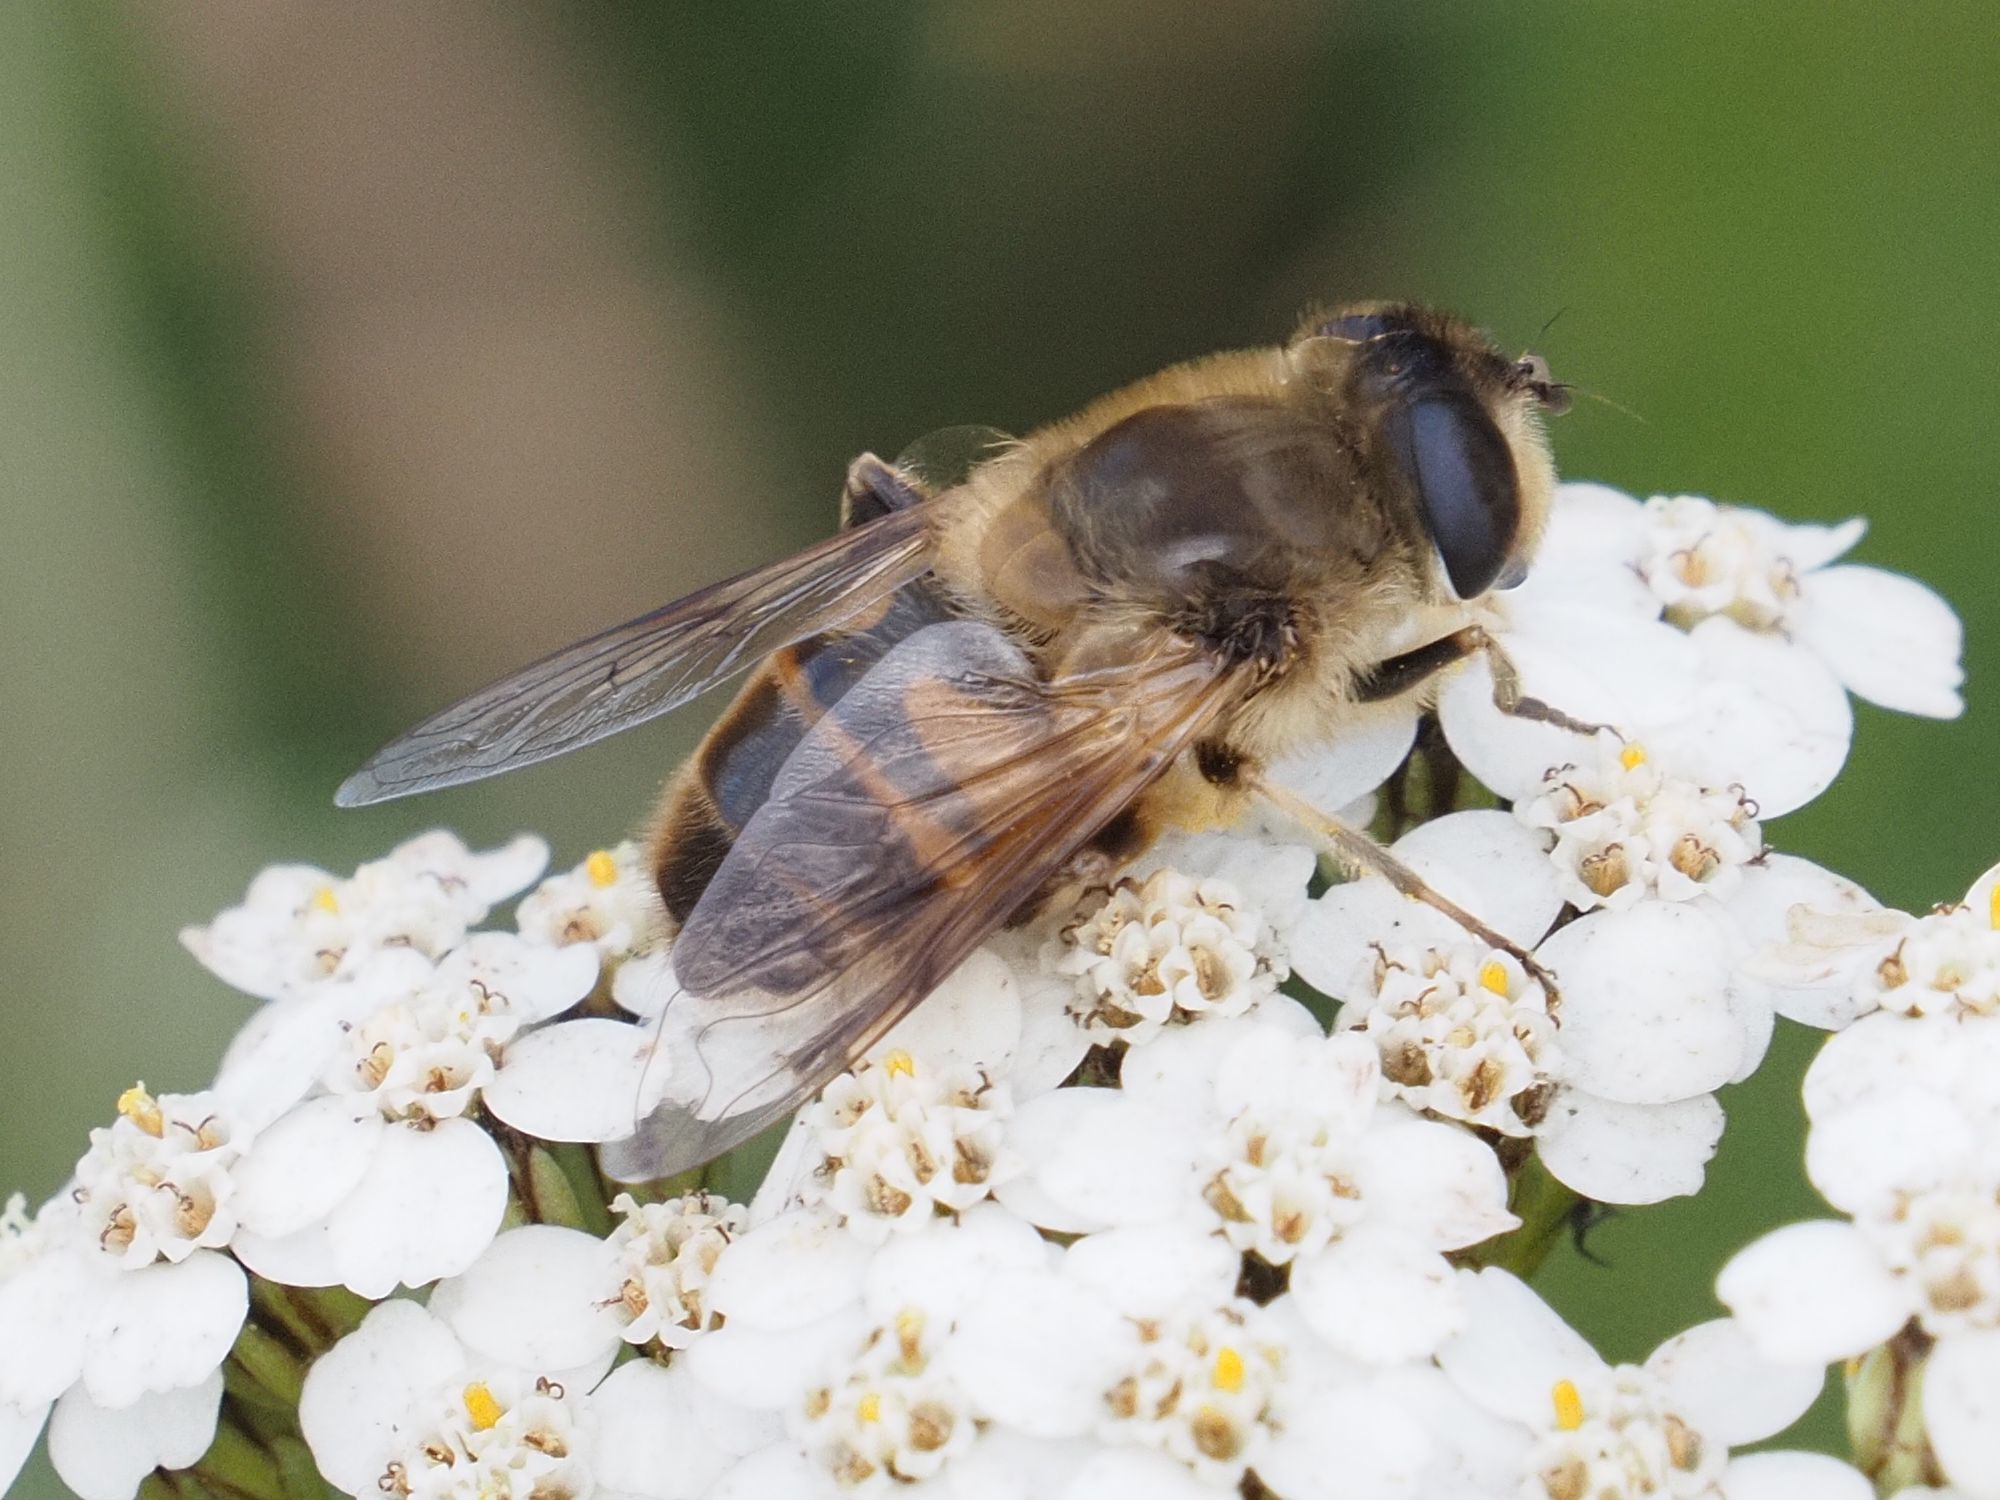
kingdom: Animalia
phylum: Arthropoda
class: Insecta
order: Diptera
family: Syrphidae
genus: Eristalis
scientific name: Eristalis tenax
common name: Drone fly
